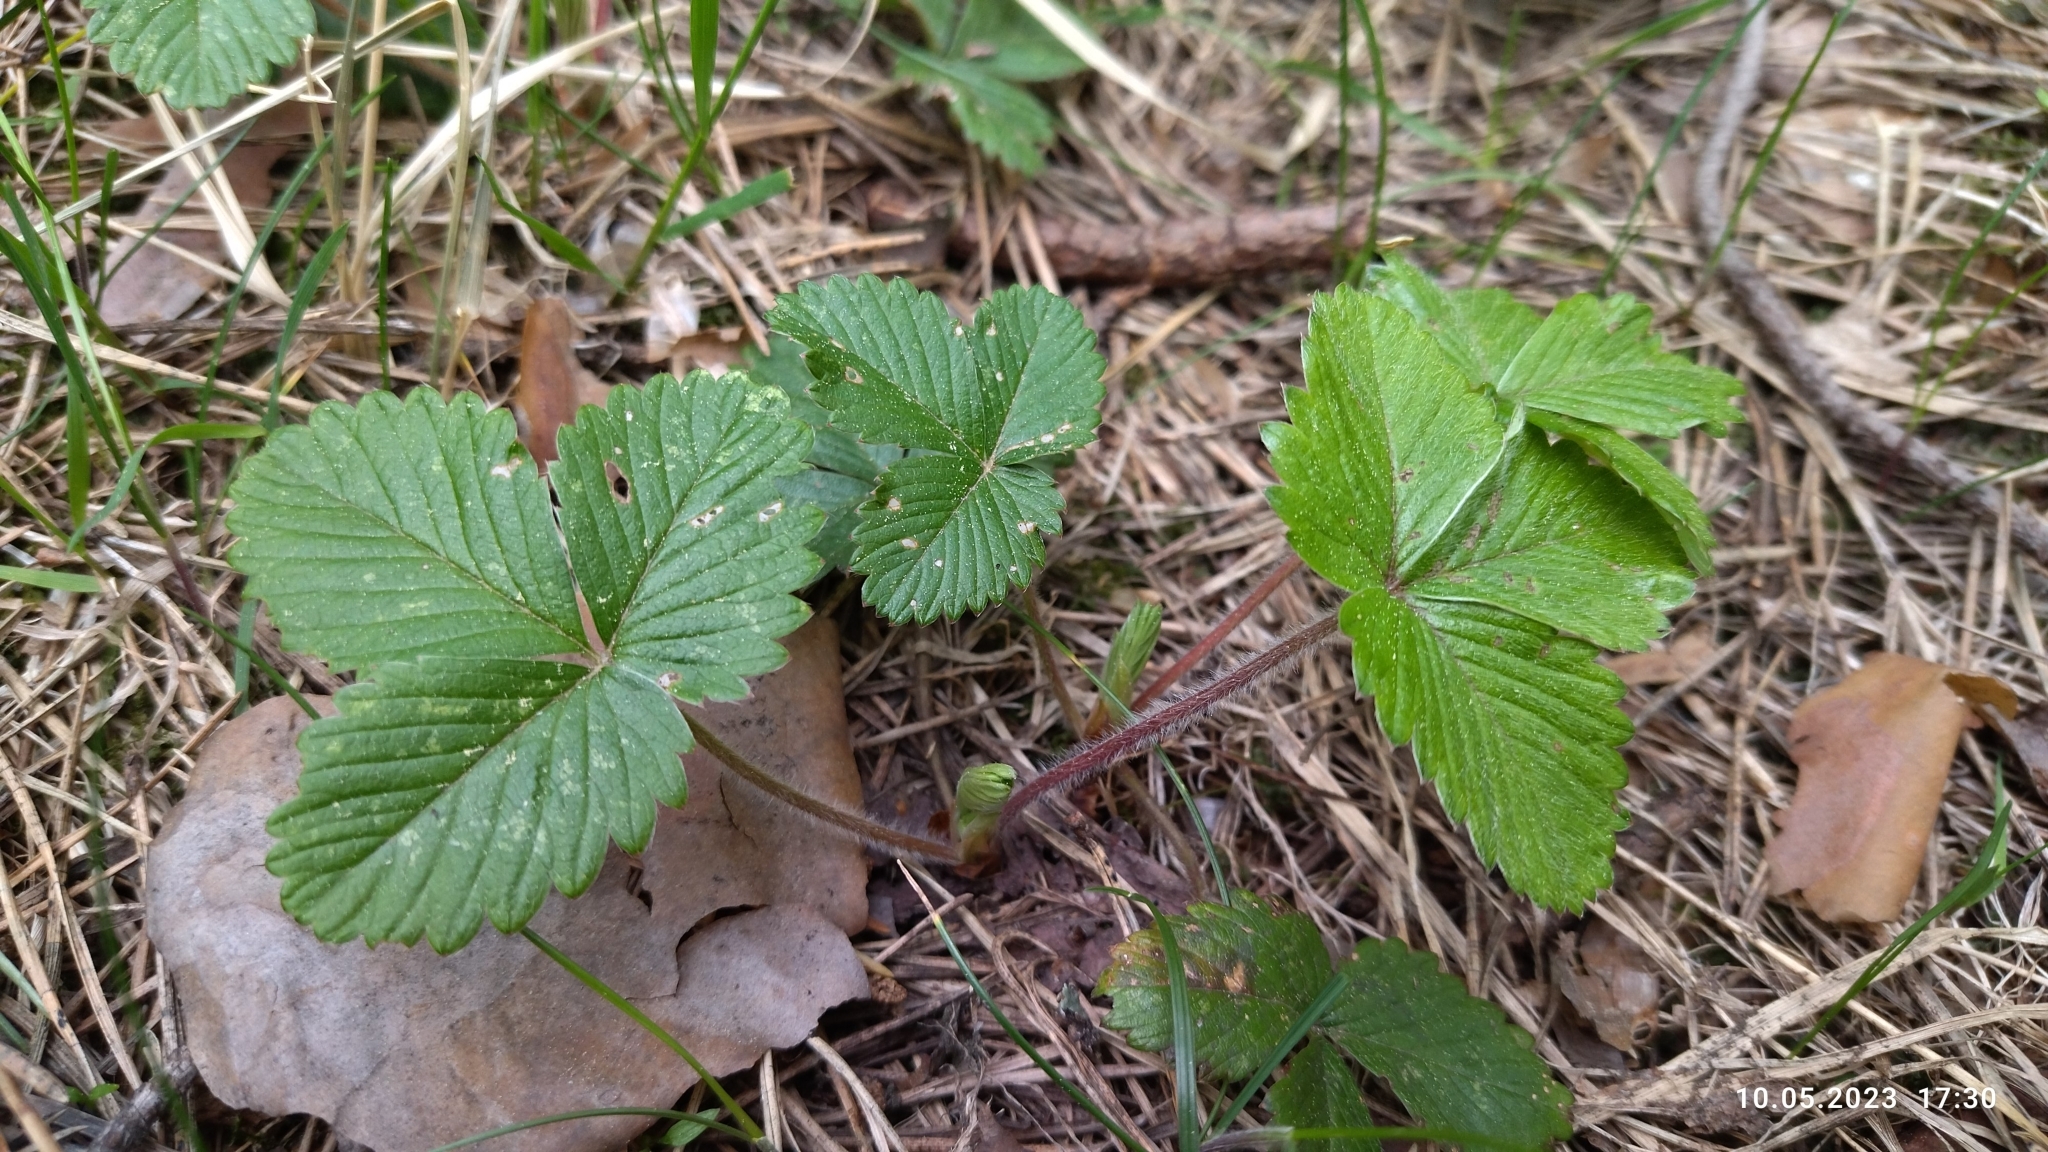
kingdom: Plantae
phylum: Tracheophyta
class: Magnoliopsida
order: Rosales
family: Rosaceae
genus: Fragaria
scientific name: Fragaria vesca
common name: Wild strawberry
